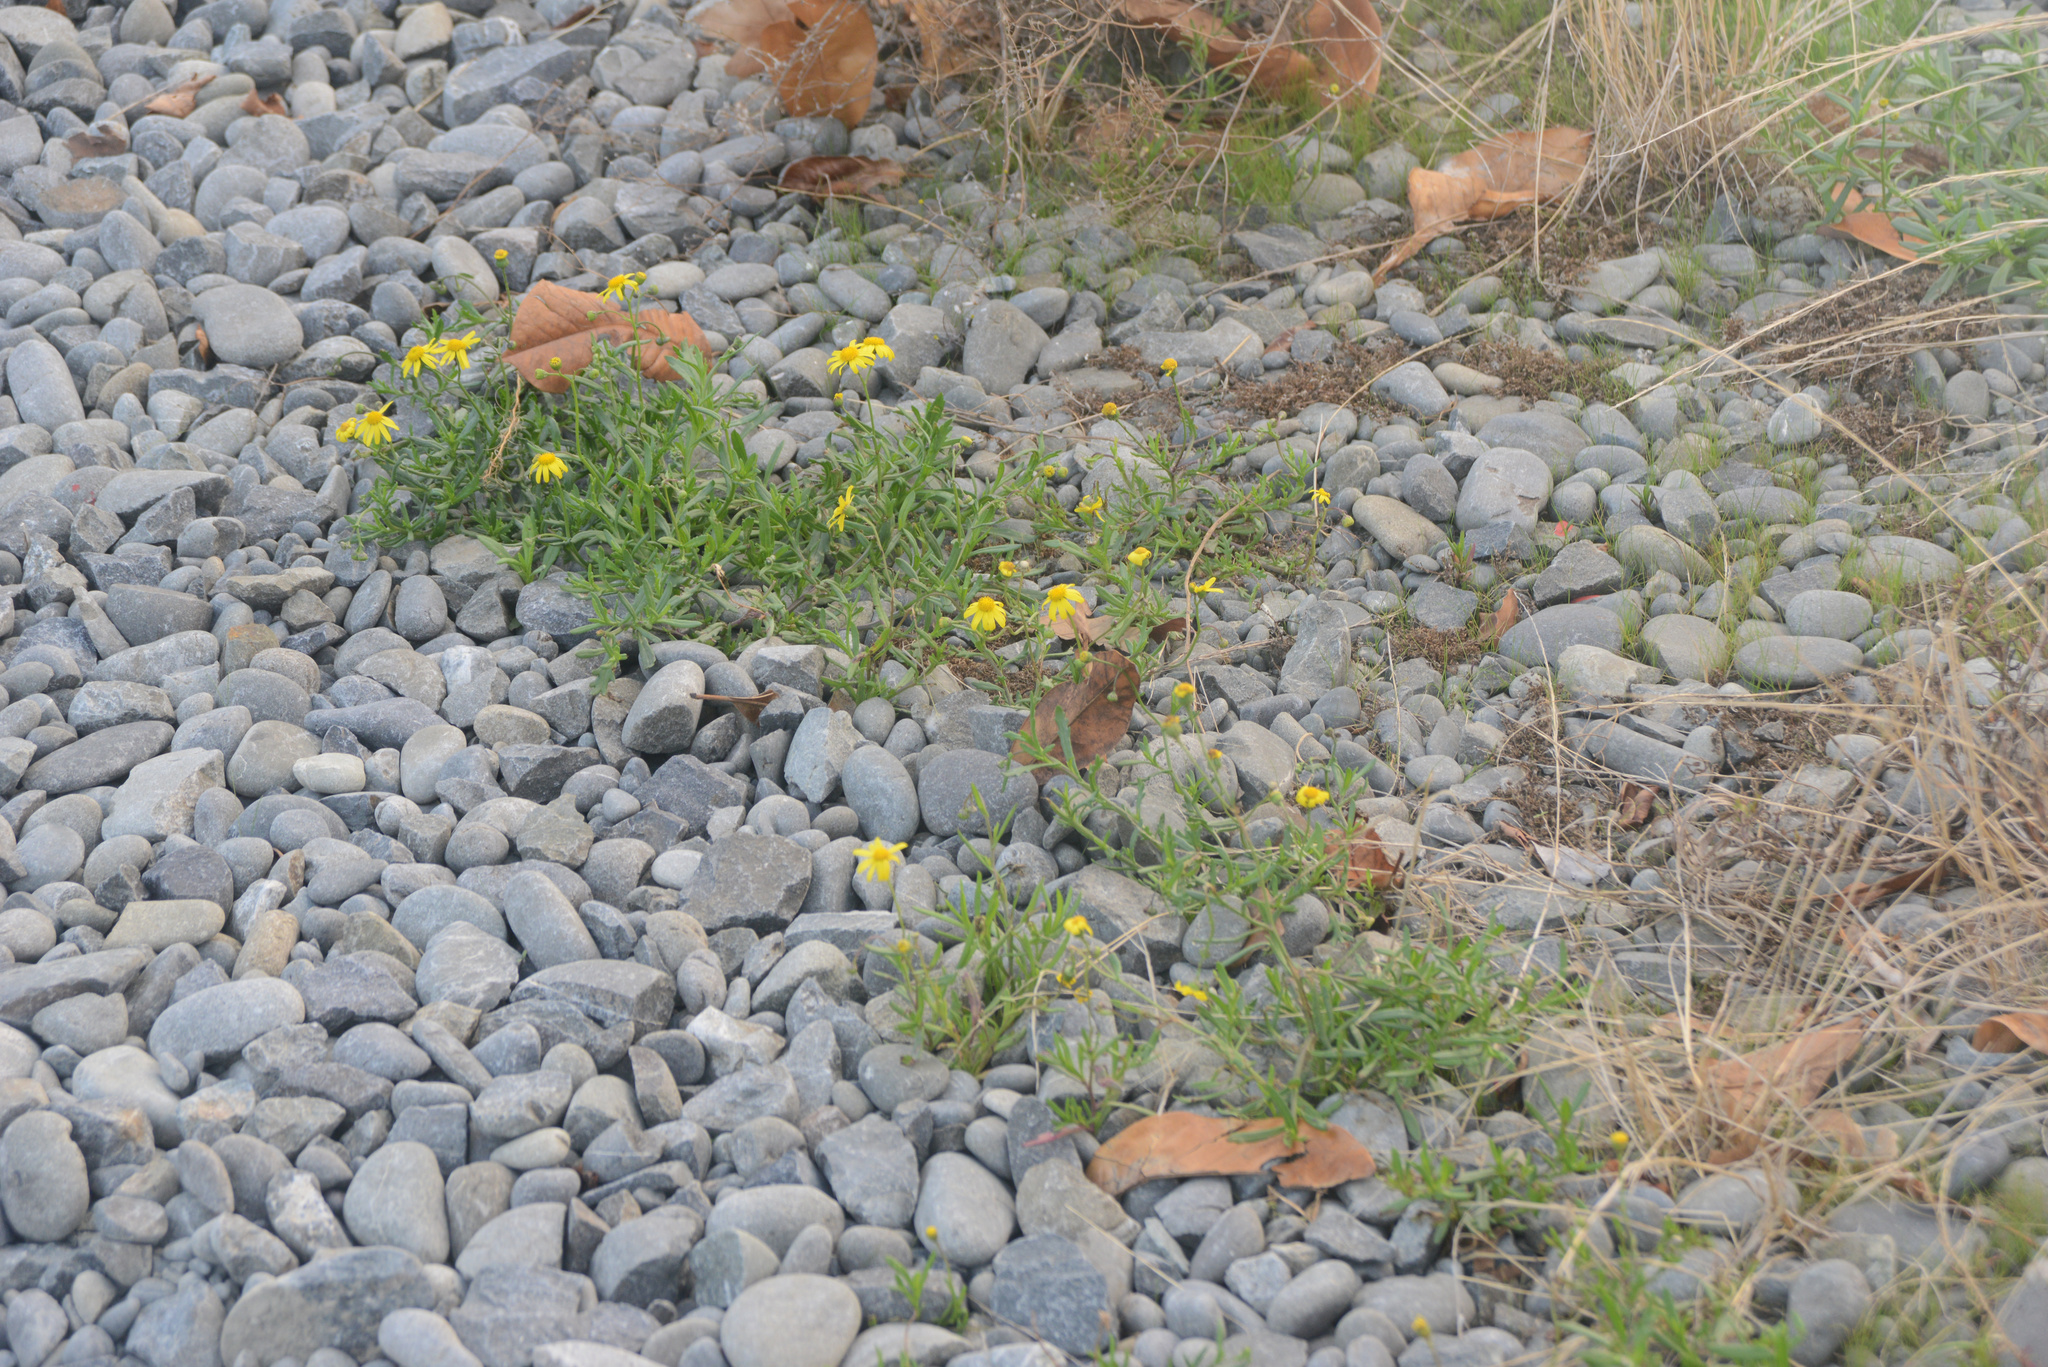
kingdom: Plantae
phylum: Tracheophyta
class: Magnoliopsida
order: Asterales
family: Asteraceae
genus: Senecio
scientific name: Senecio skirrhodon
